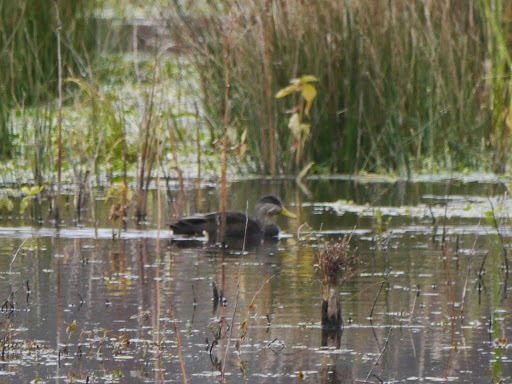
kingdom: Animalia
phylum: Chordata
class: Aves
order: Anseriformes
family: Anatidae
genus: Anas
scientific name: Anas rubripes
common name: American black duck
